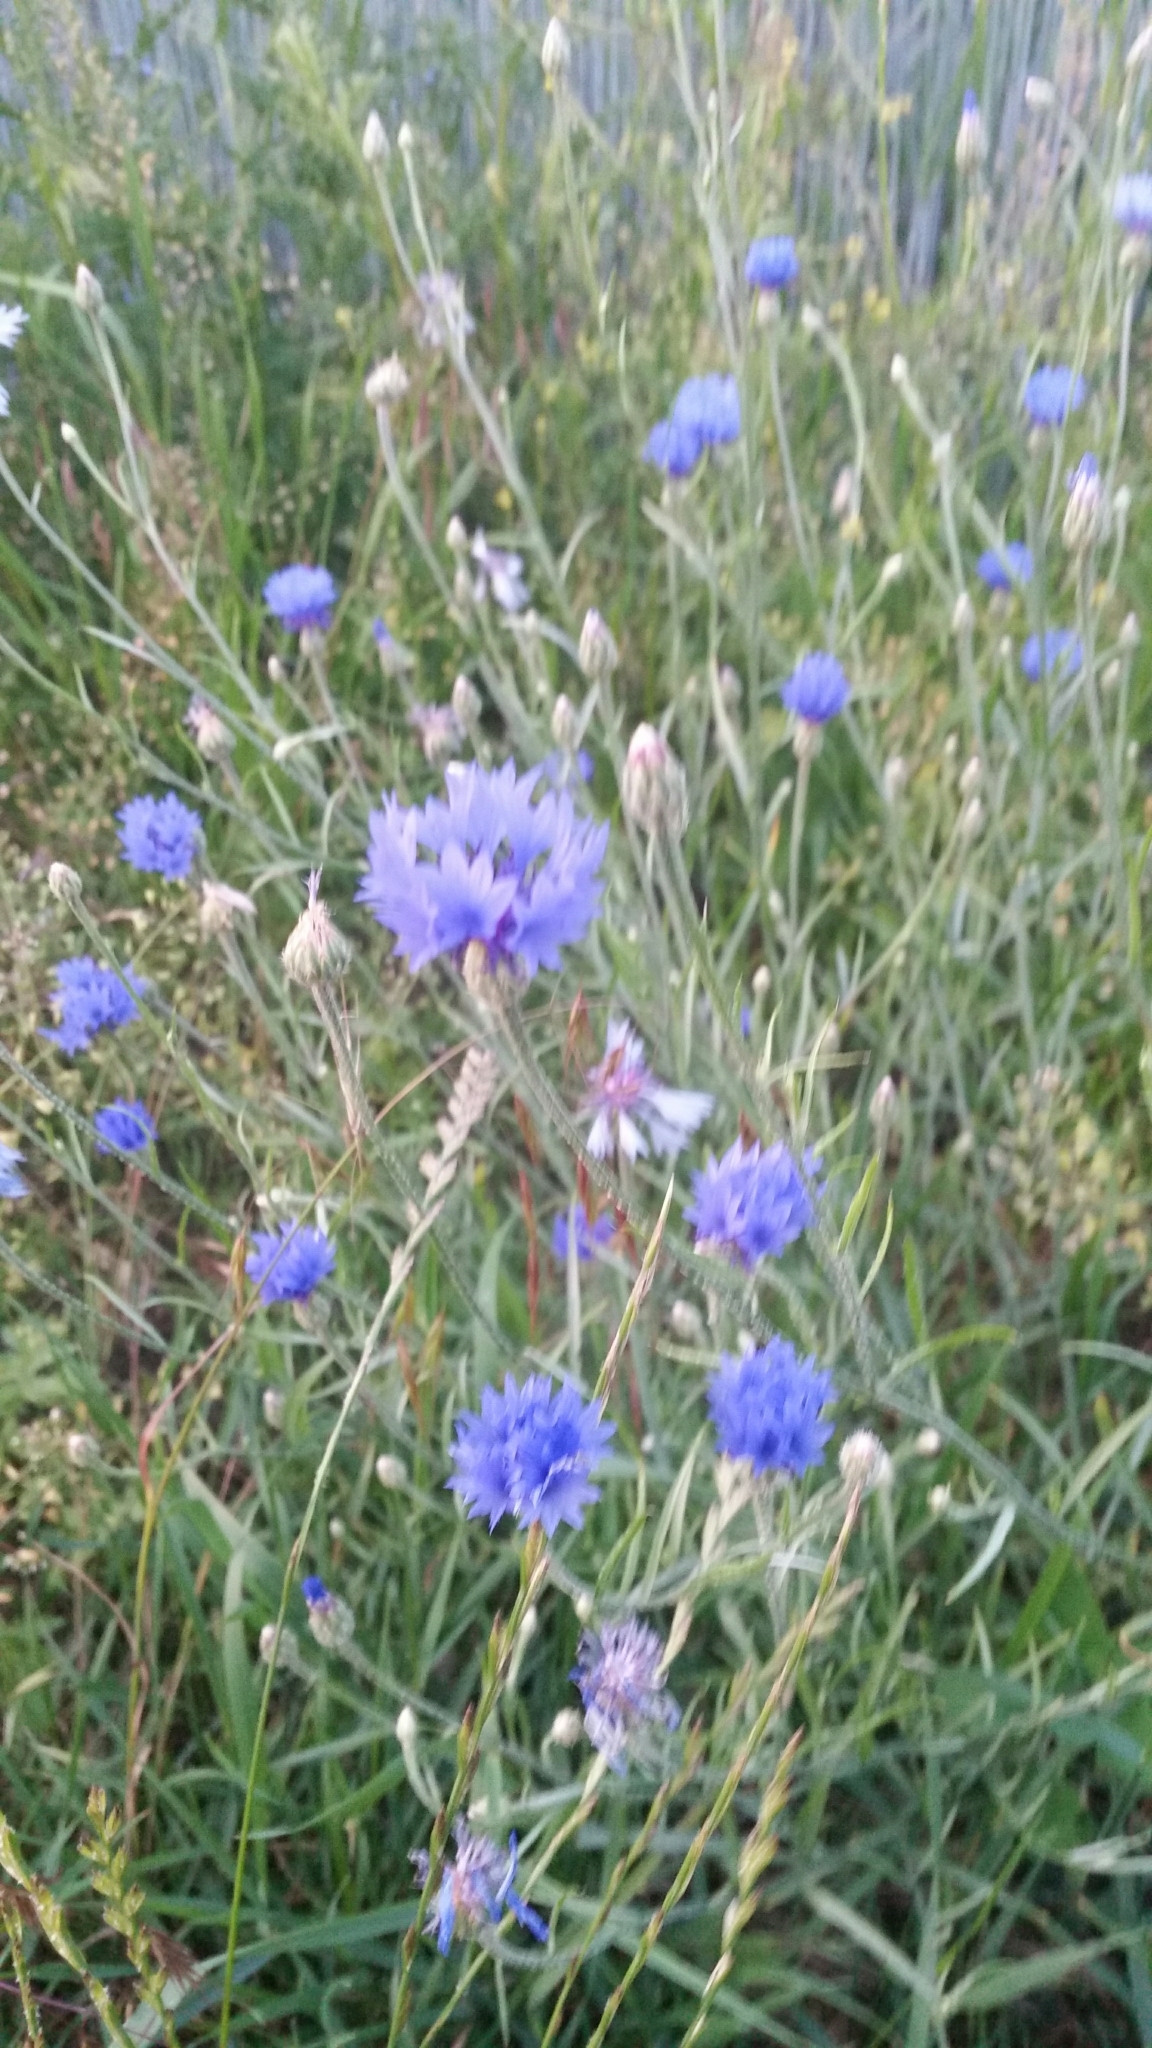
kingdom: Plantae
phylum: Tracheophyta
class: Magnoliopsida
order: Asterales
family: Asteraceae
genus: Centaurea
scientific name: Centaurea cyanus
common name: Cornflower
